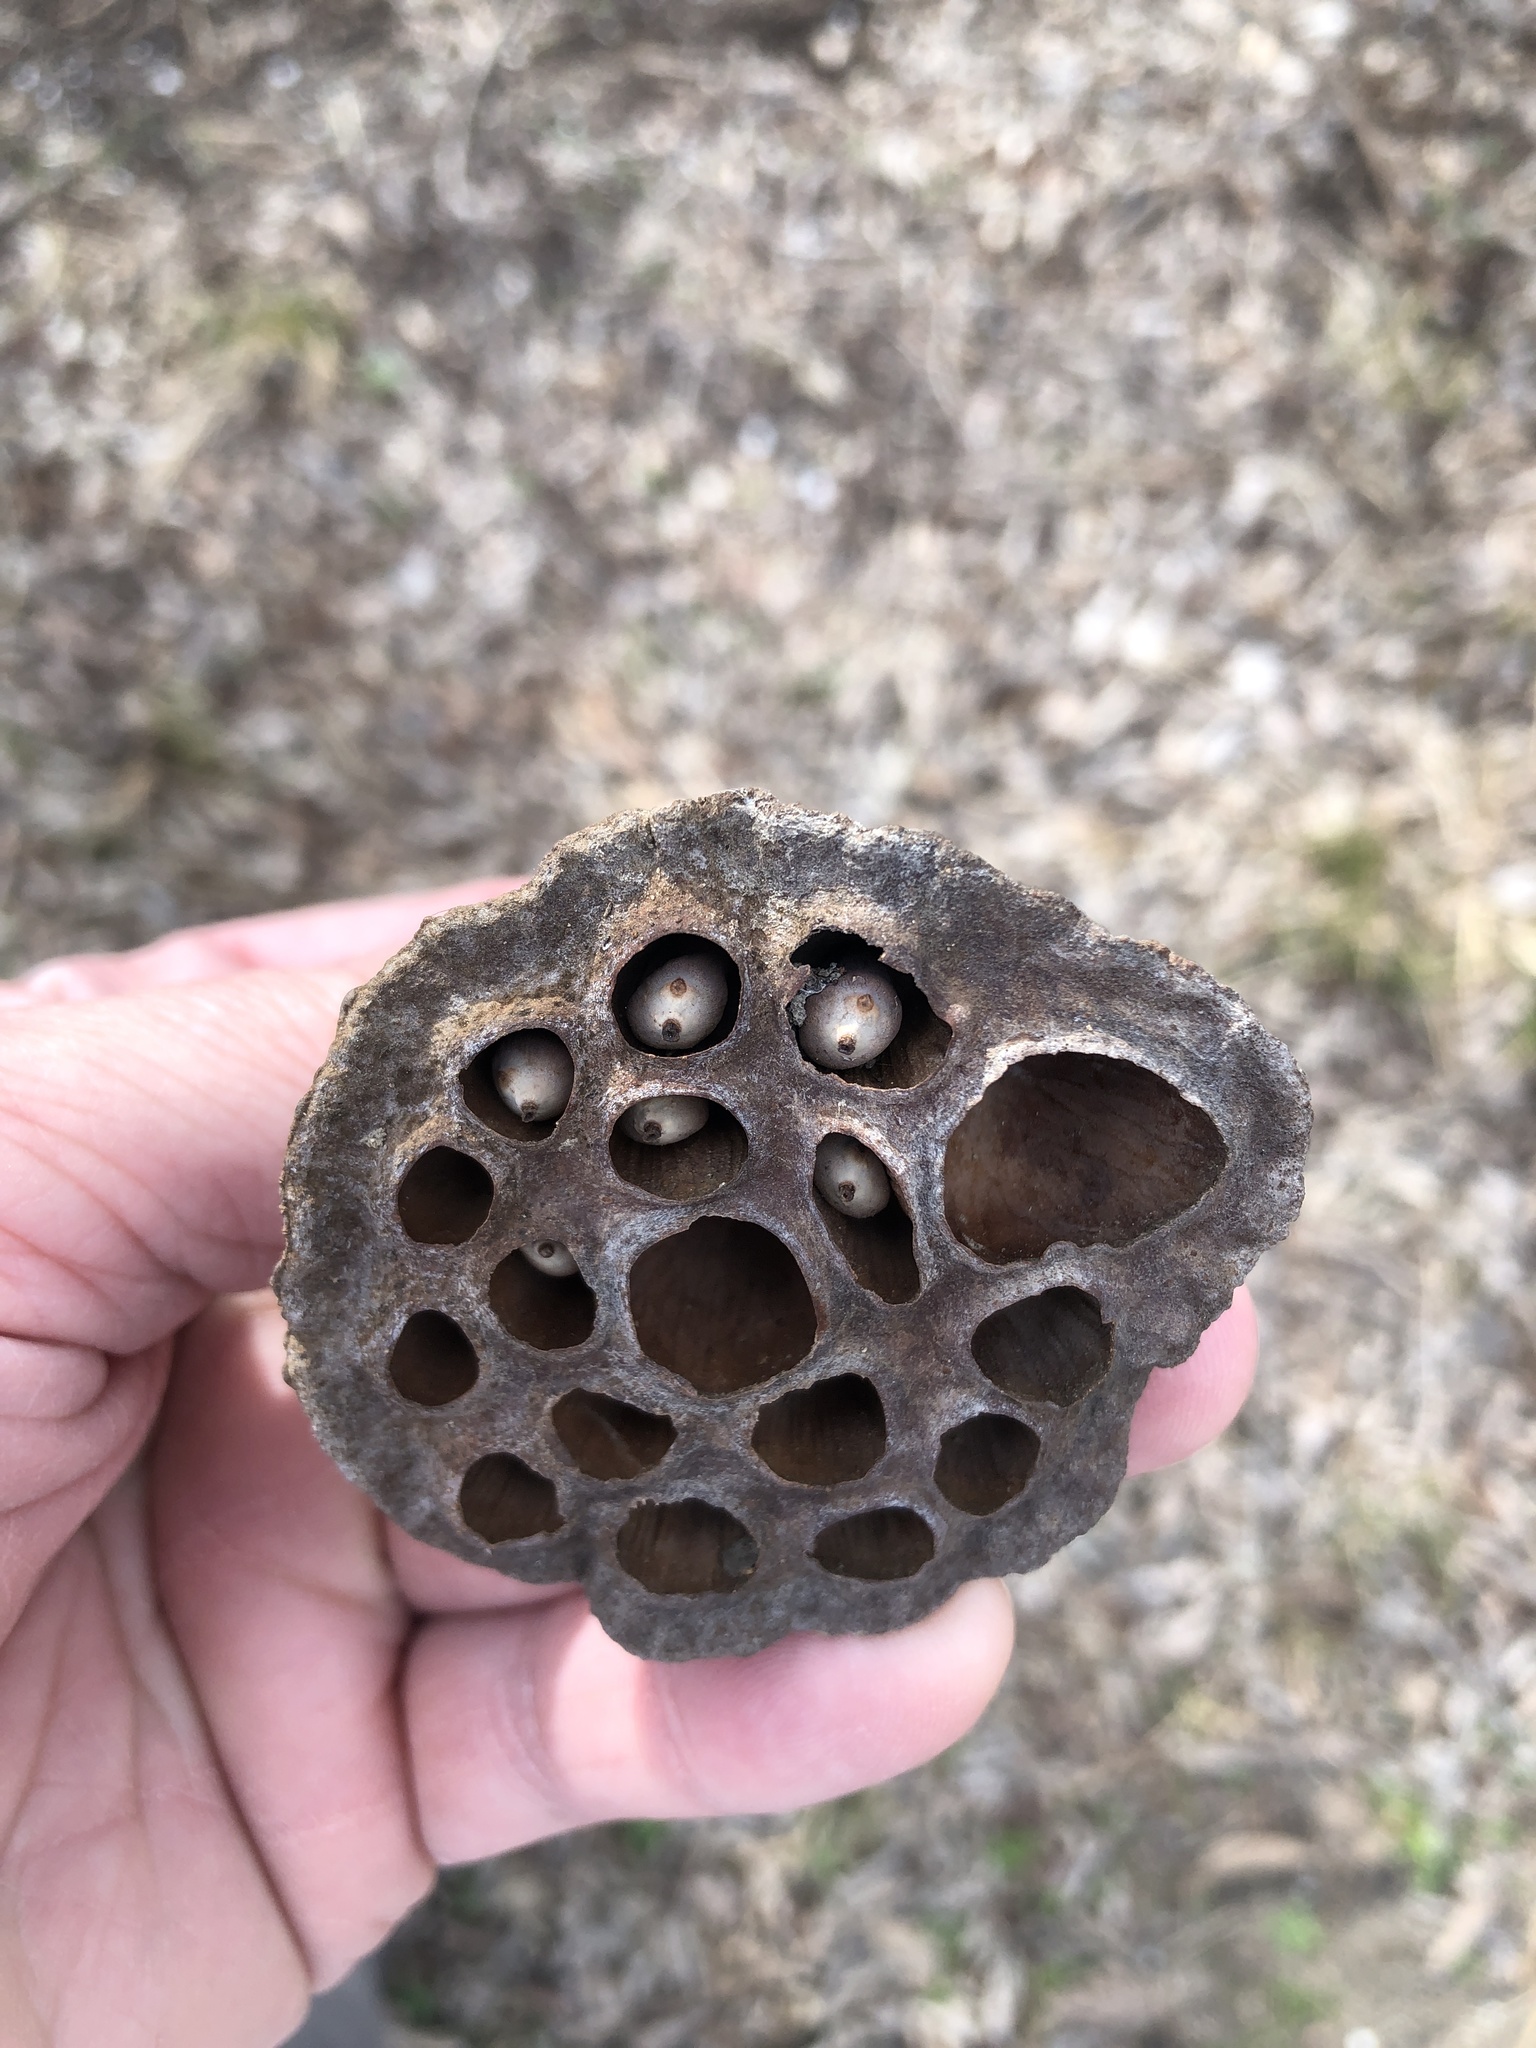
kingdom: Plantae
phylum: Tracheophyta
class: Magnoliopsida
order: Proteales
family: Nelumbonaceae
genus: Nelumbo
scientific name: Nelumbo lutea
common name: American lotus
